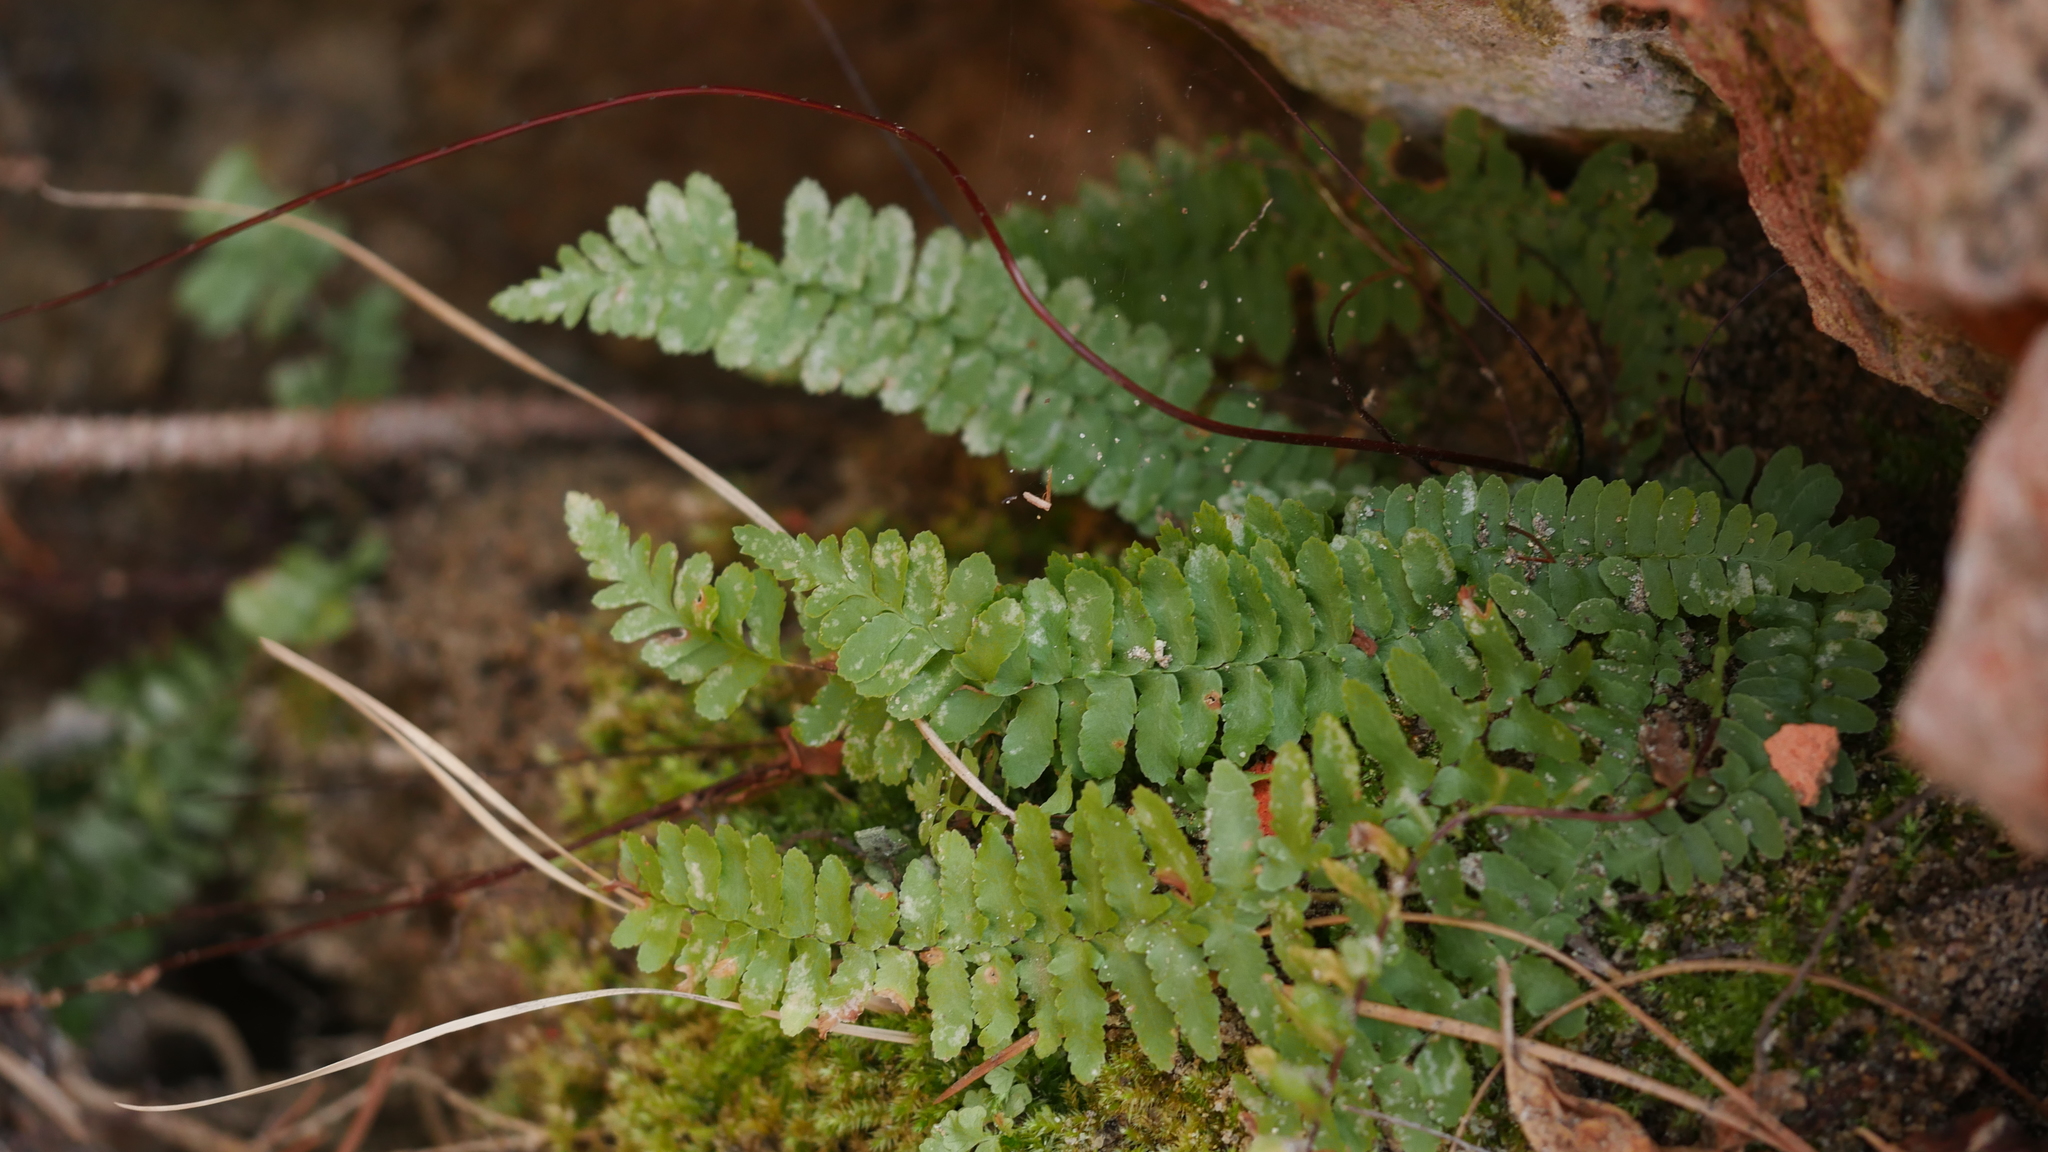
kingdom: Plantae
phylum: Tracheophyta
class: Polypodiopsida
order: Polypodiales
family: Aspleniaceae
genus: Asplenium
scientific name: Asplenium platyneuron
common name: Ebony spleenwort
